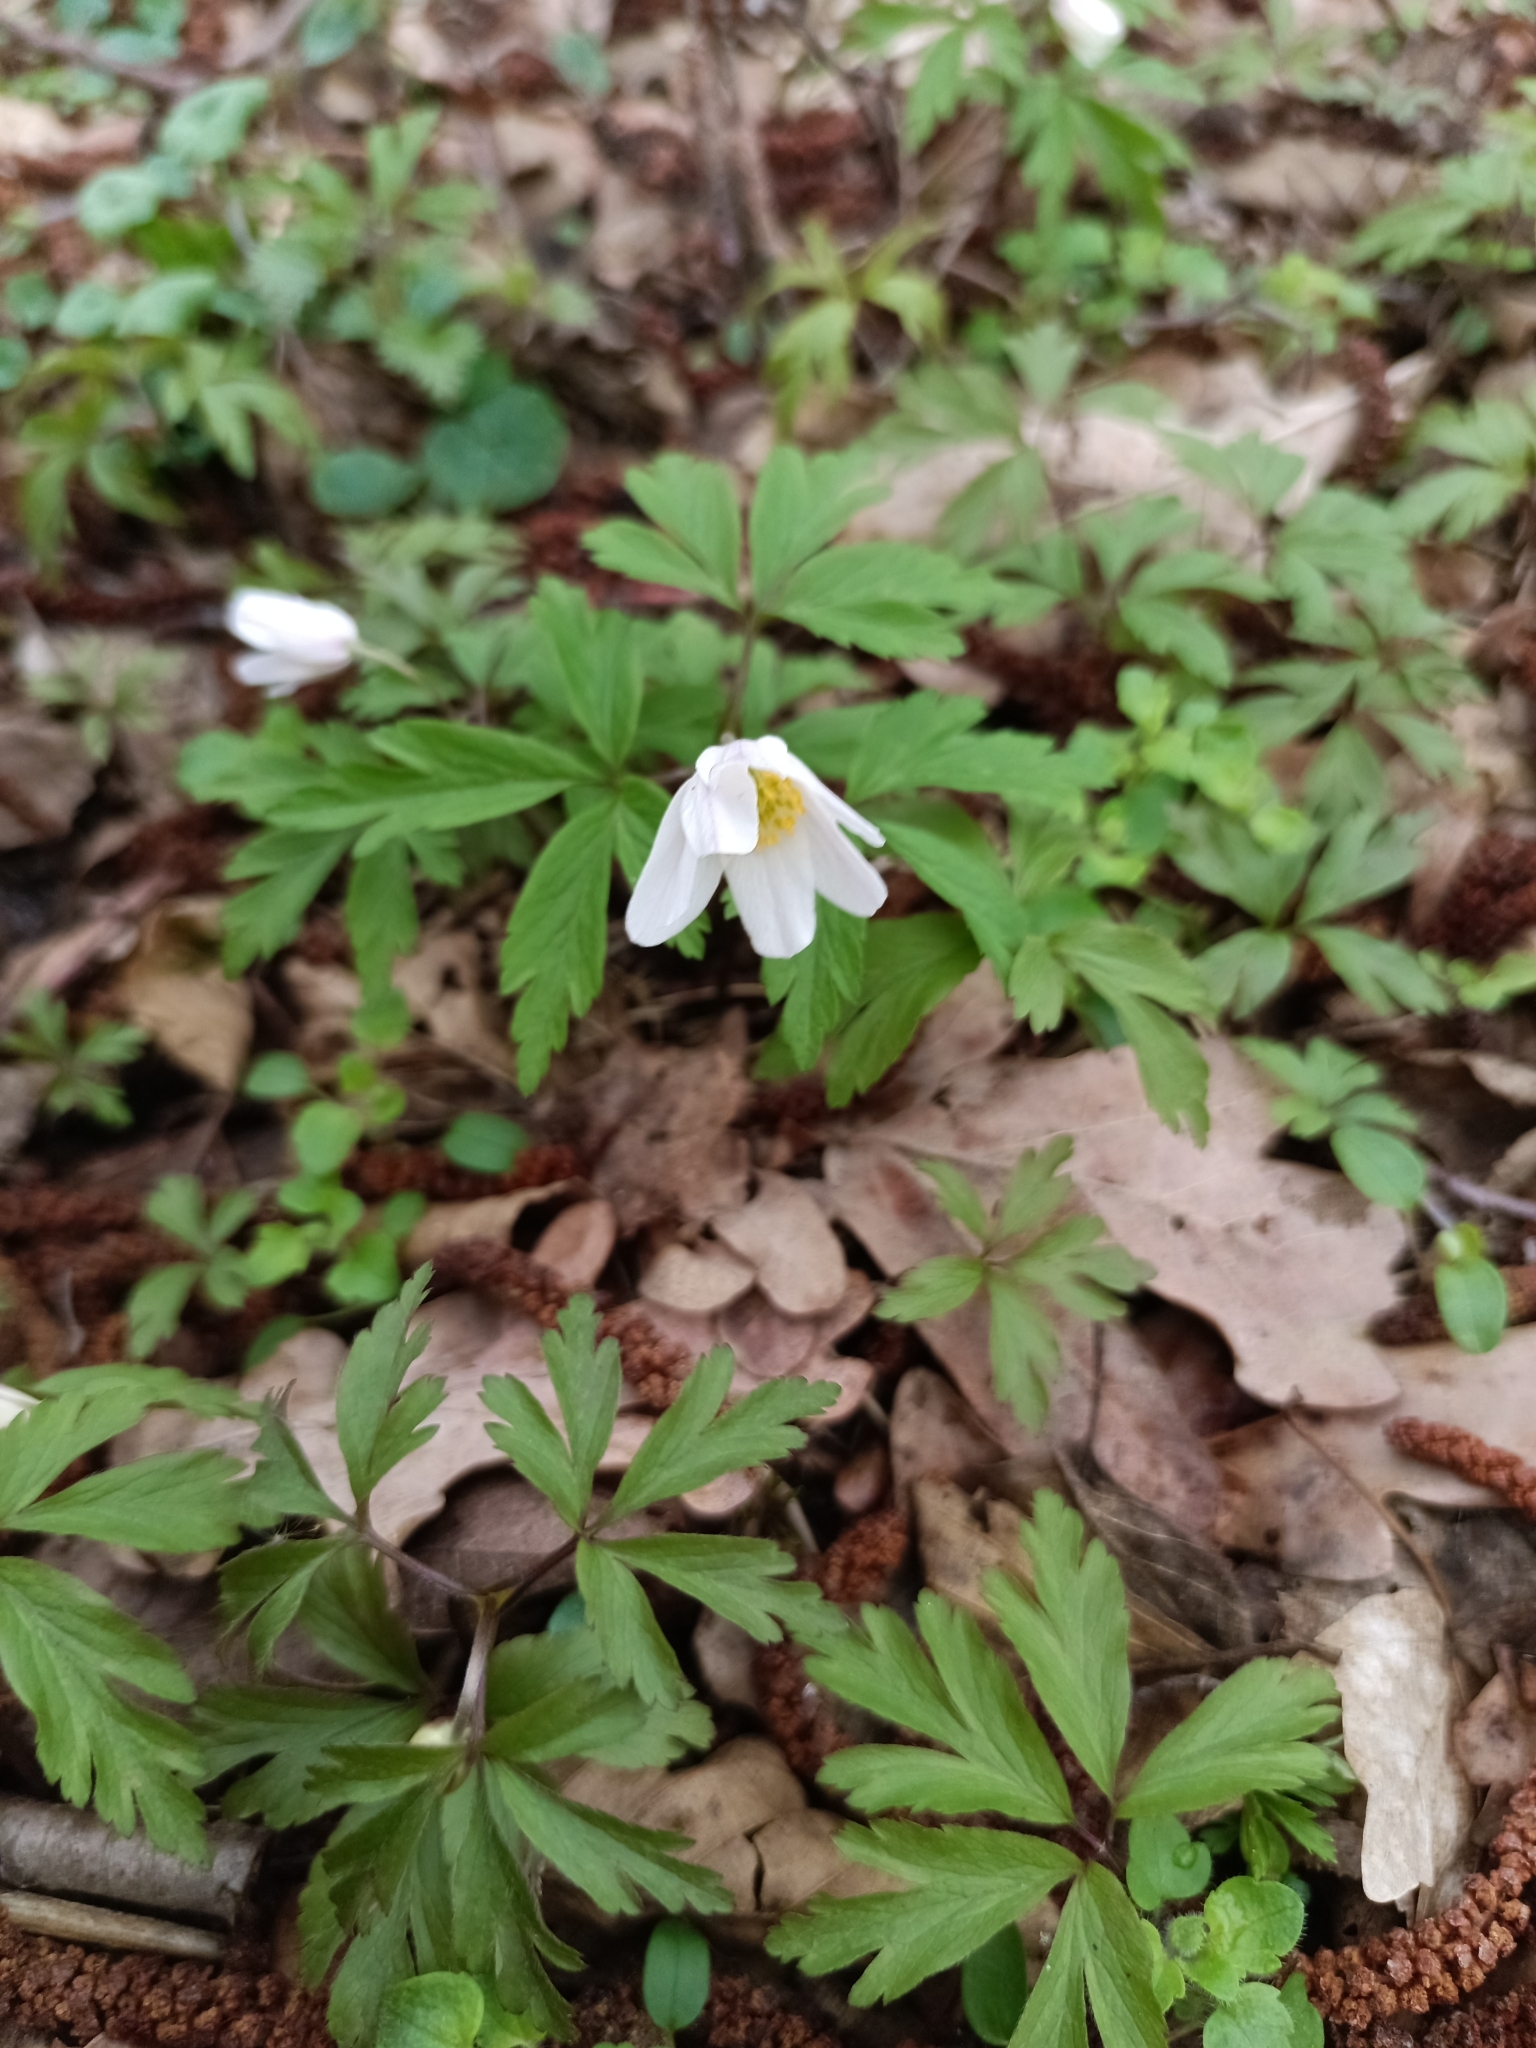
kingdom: Plantae
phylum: Tracheophyta
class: Magnoliopsida
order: Ranunculales
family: Ranunculaceae
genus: Anemone
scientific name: Anemone nemorosa
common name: Wood anemone
